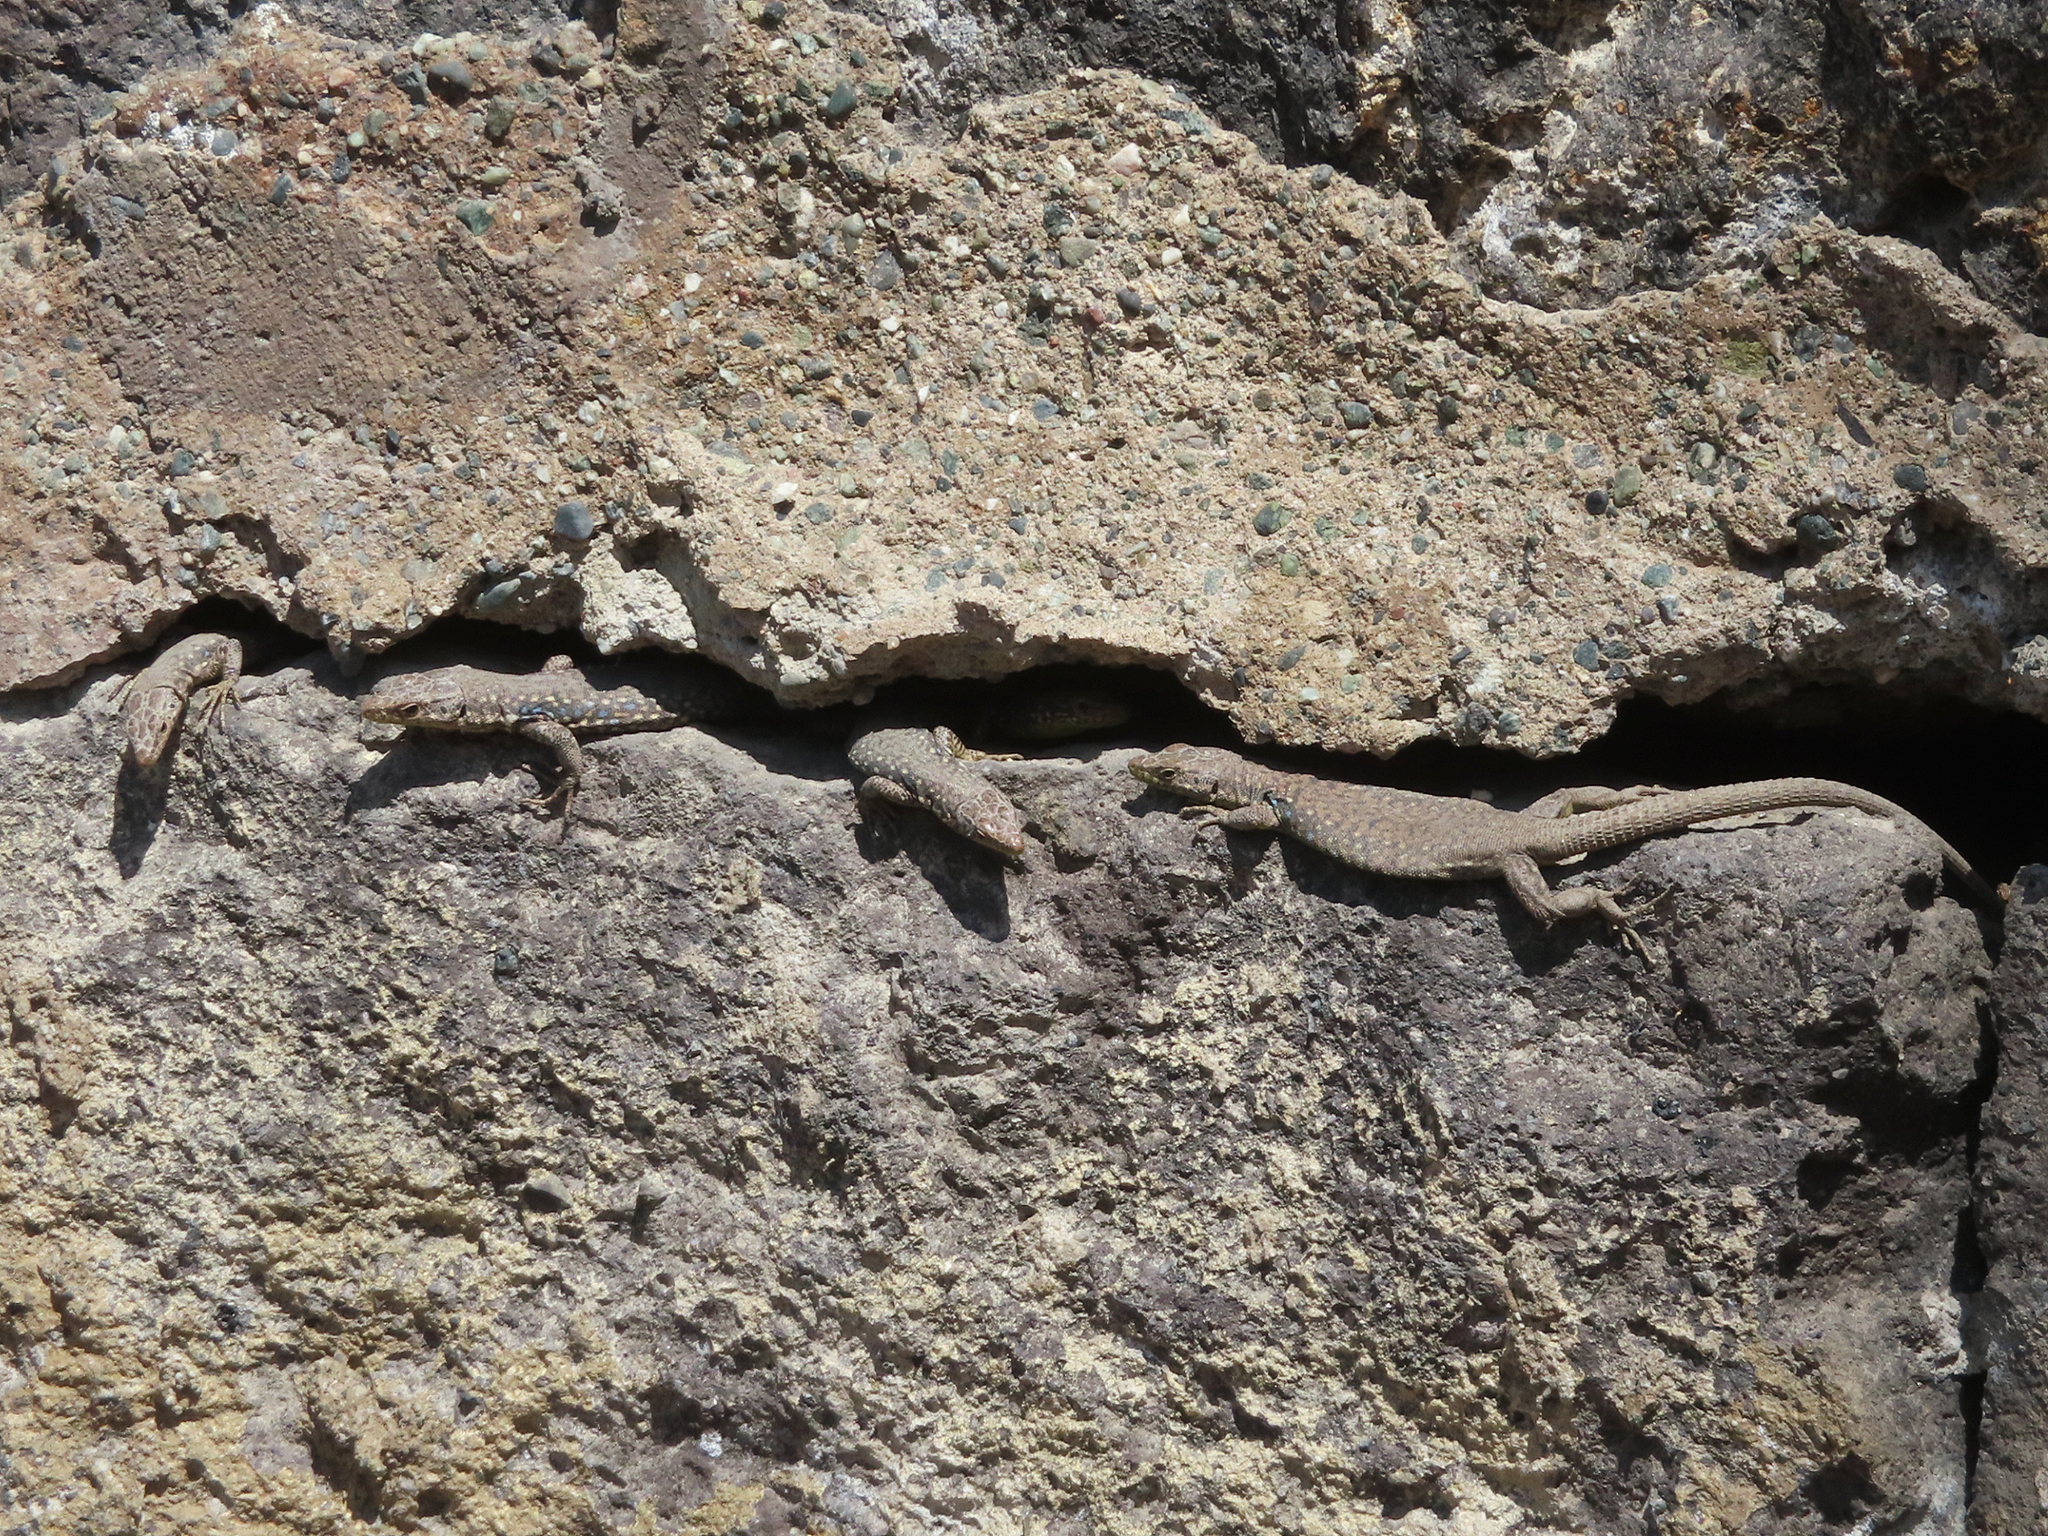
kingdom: Animalia
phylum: Chordata
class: Squamata
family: Lacertidae
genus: Darevskia
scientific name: Darevskia
